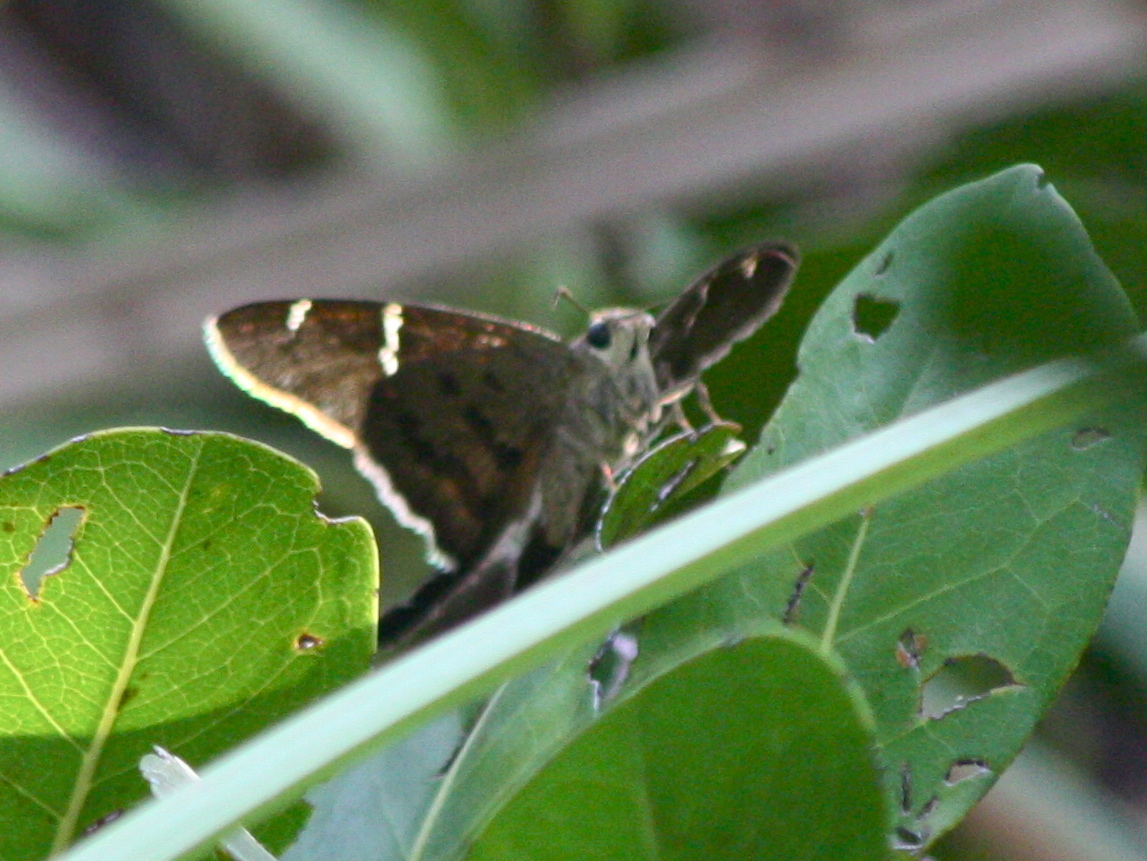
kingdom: Animalia
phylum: Arthropoda
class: Insecta
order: Lepidoptera
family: Hesperiidae
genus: Urbanus
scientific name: Urbanus teleus
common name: Teleus longtail
